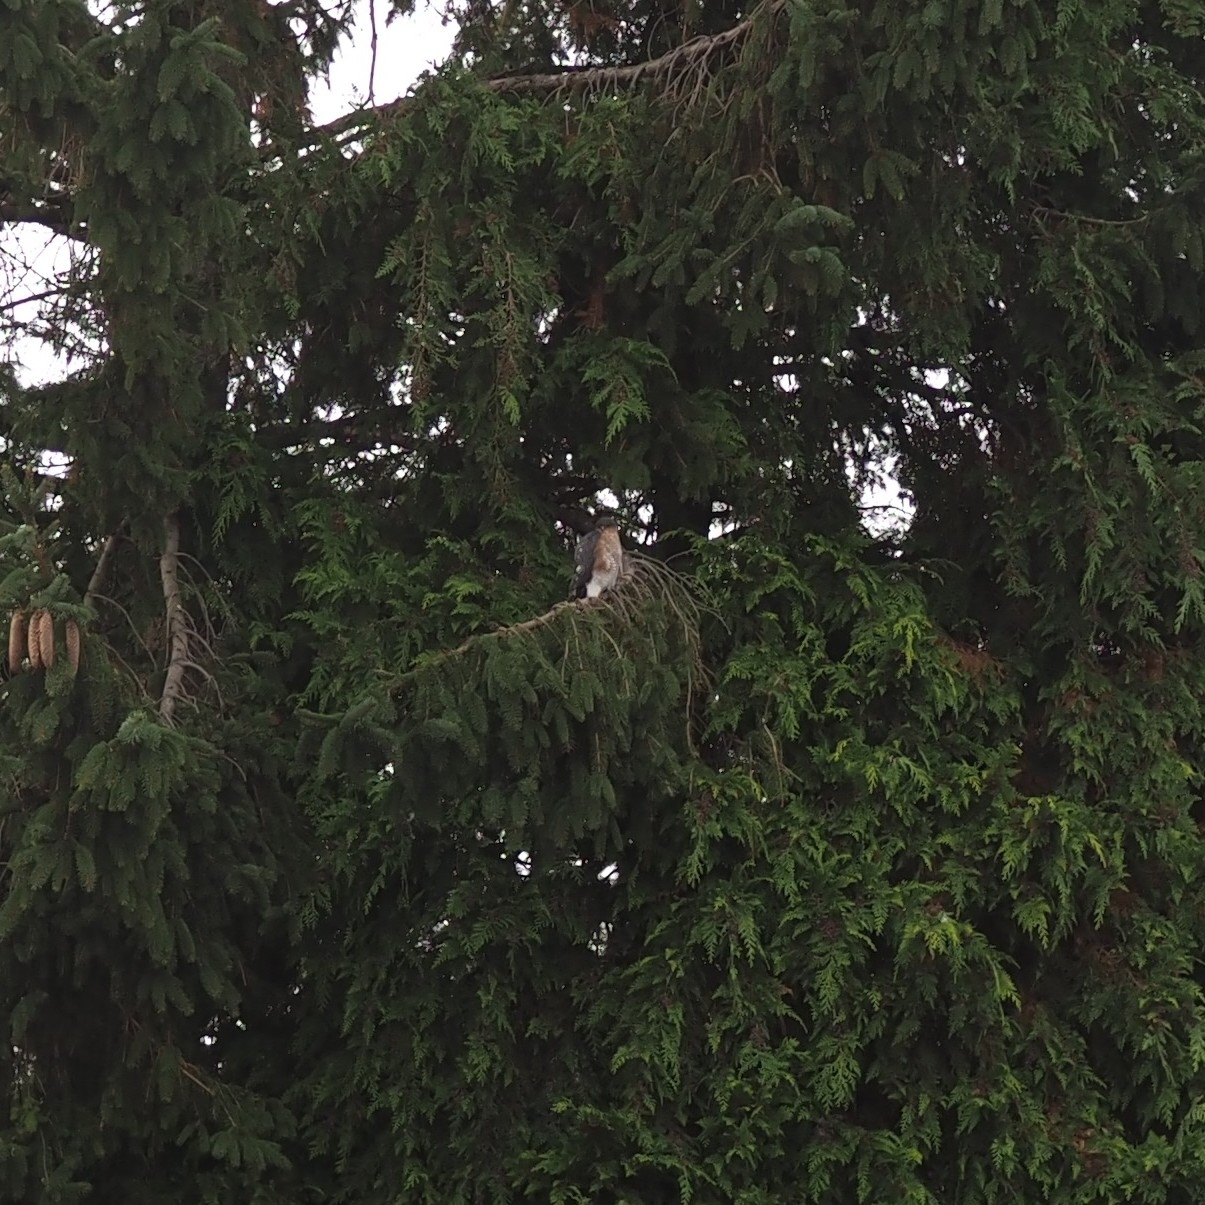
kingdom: Animalia
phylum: Chordata
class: Aves
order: Accipitriformes
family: Accipitridae
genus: Accipiter
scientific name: Accipiter nisus
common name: Eurasian sparrowhawk
